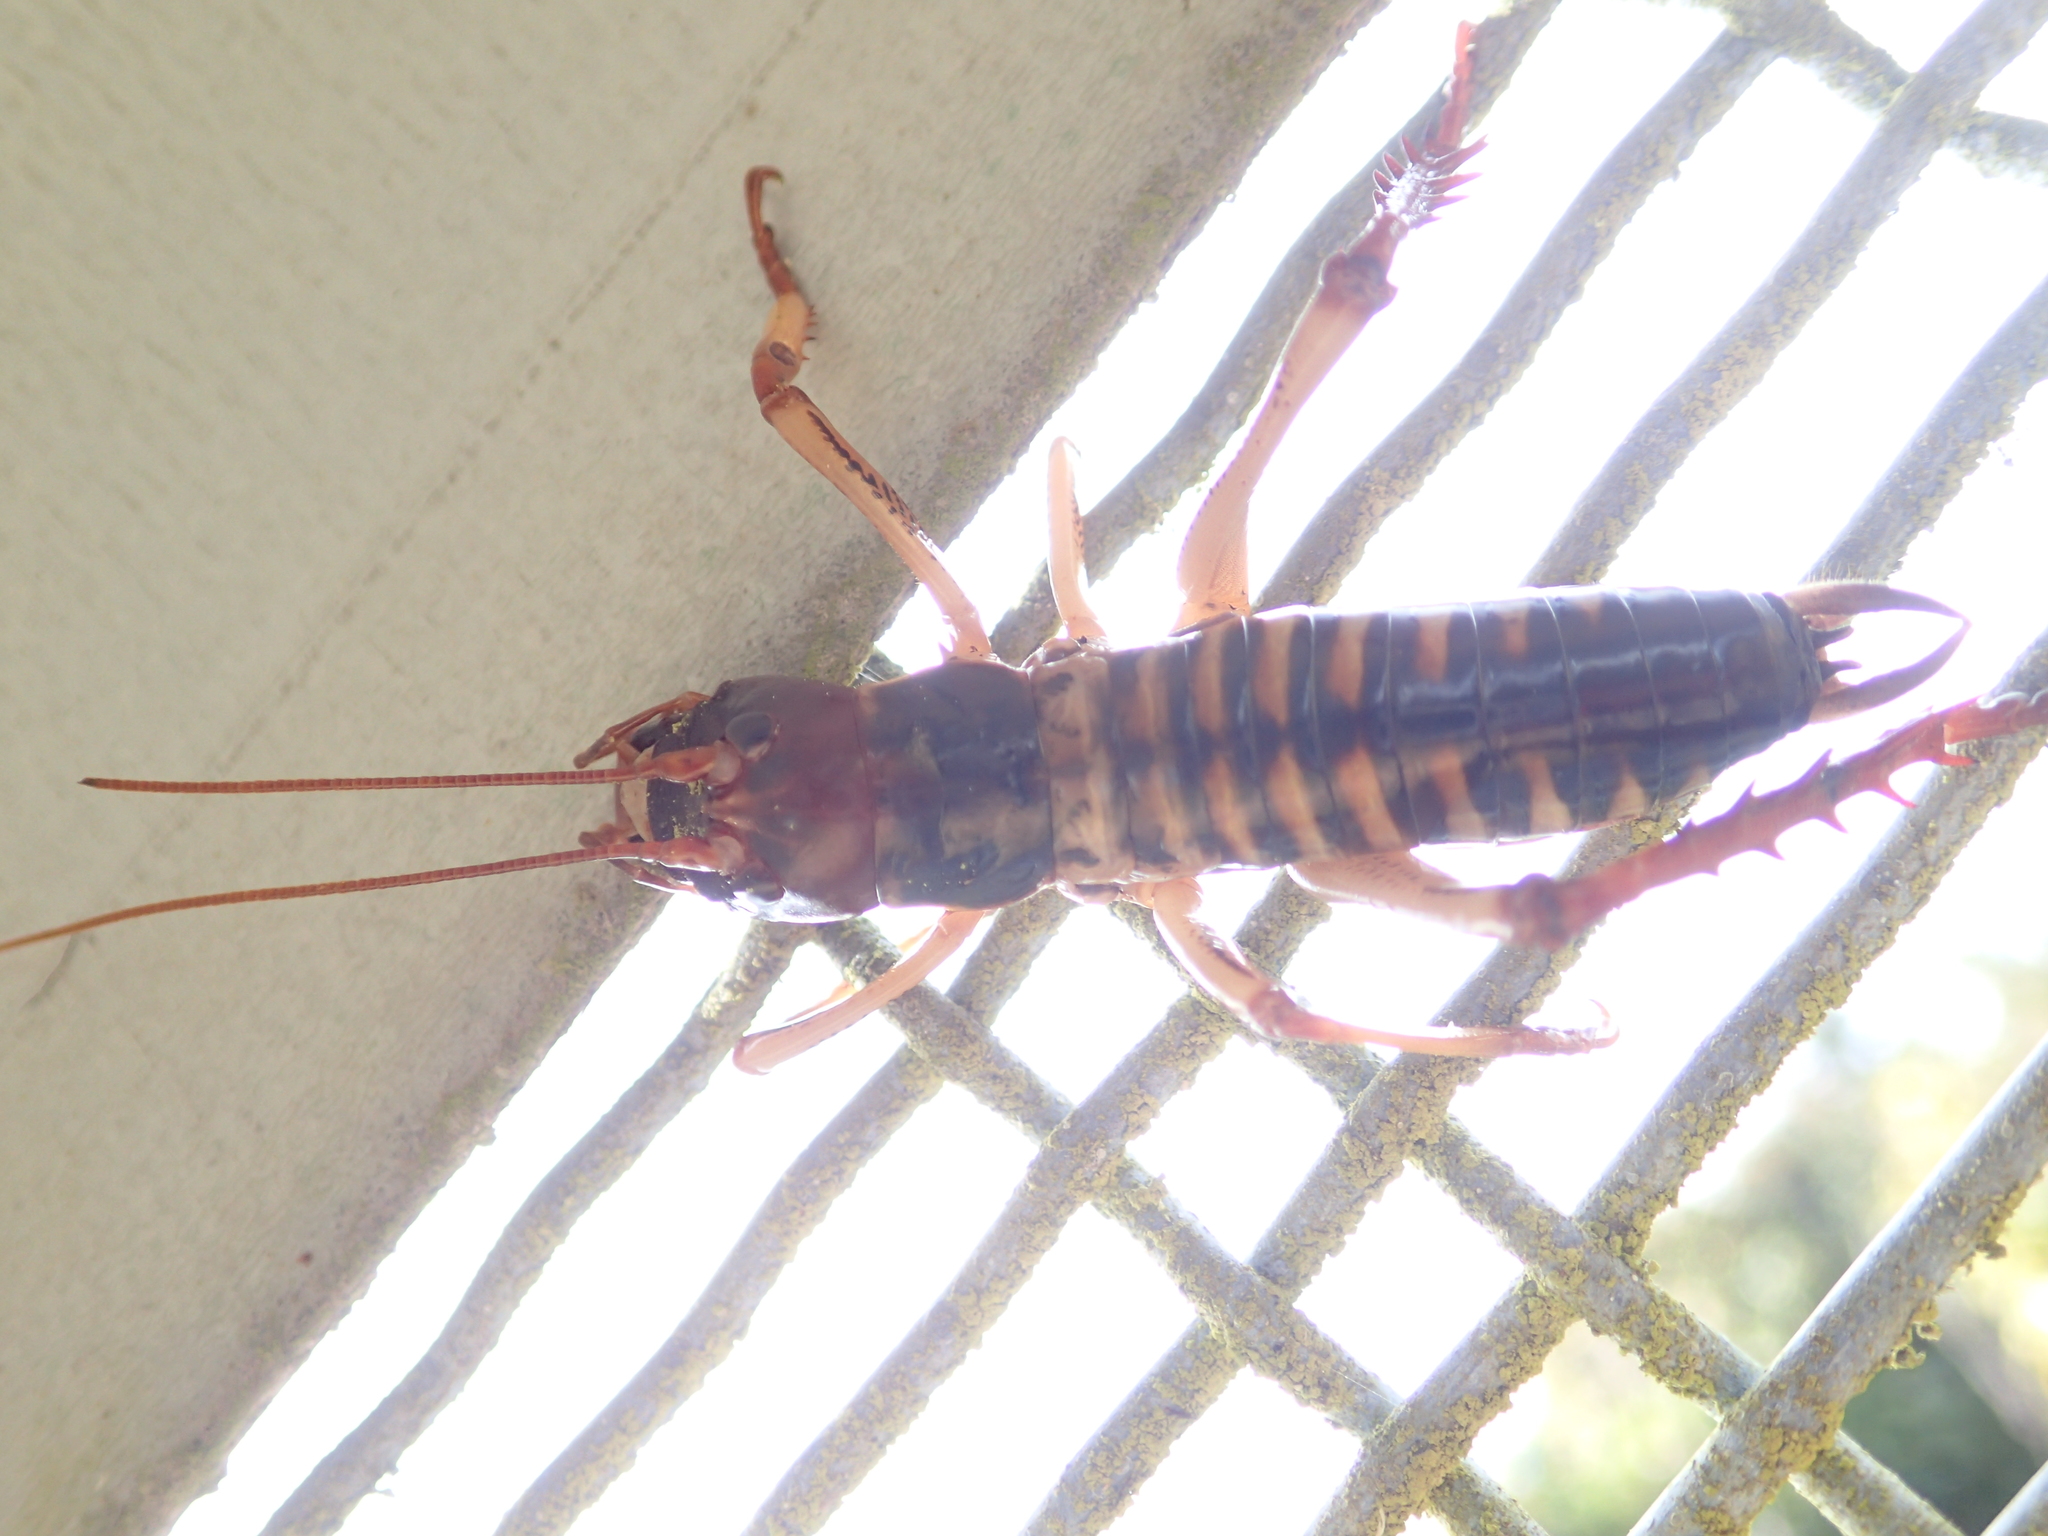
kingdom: Animalia
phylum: Arthropoda
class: Insecta
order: Orthoptera
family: Anostostomatidae
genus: Hemideina
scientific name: Hemideina crassidens
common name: Wellington tree weta
